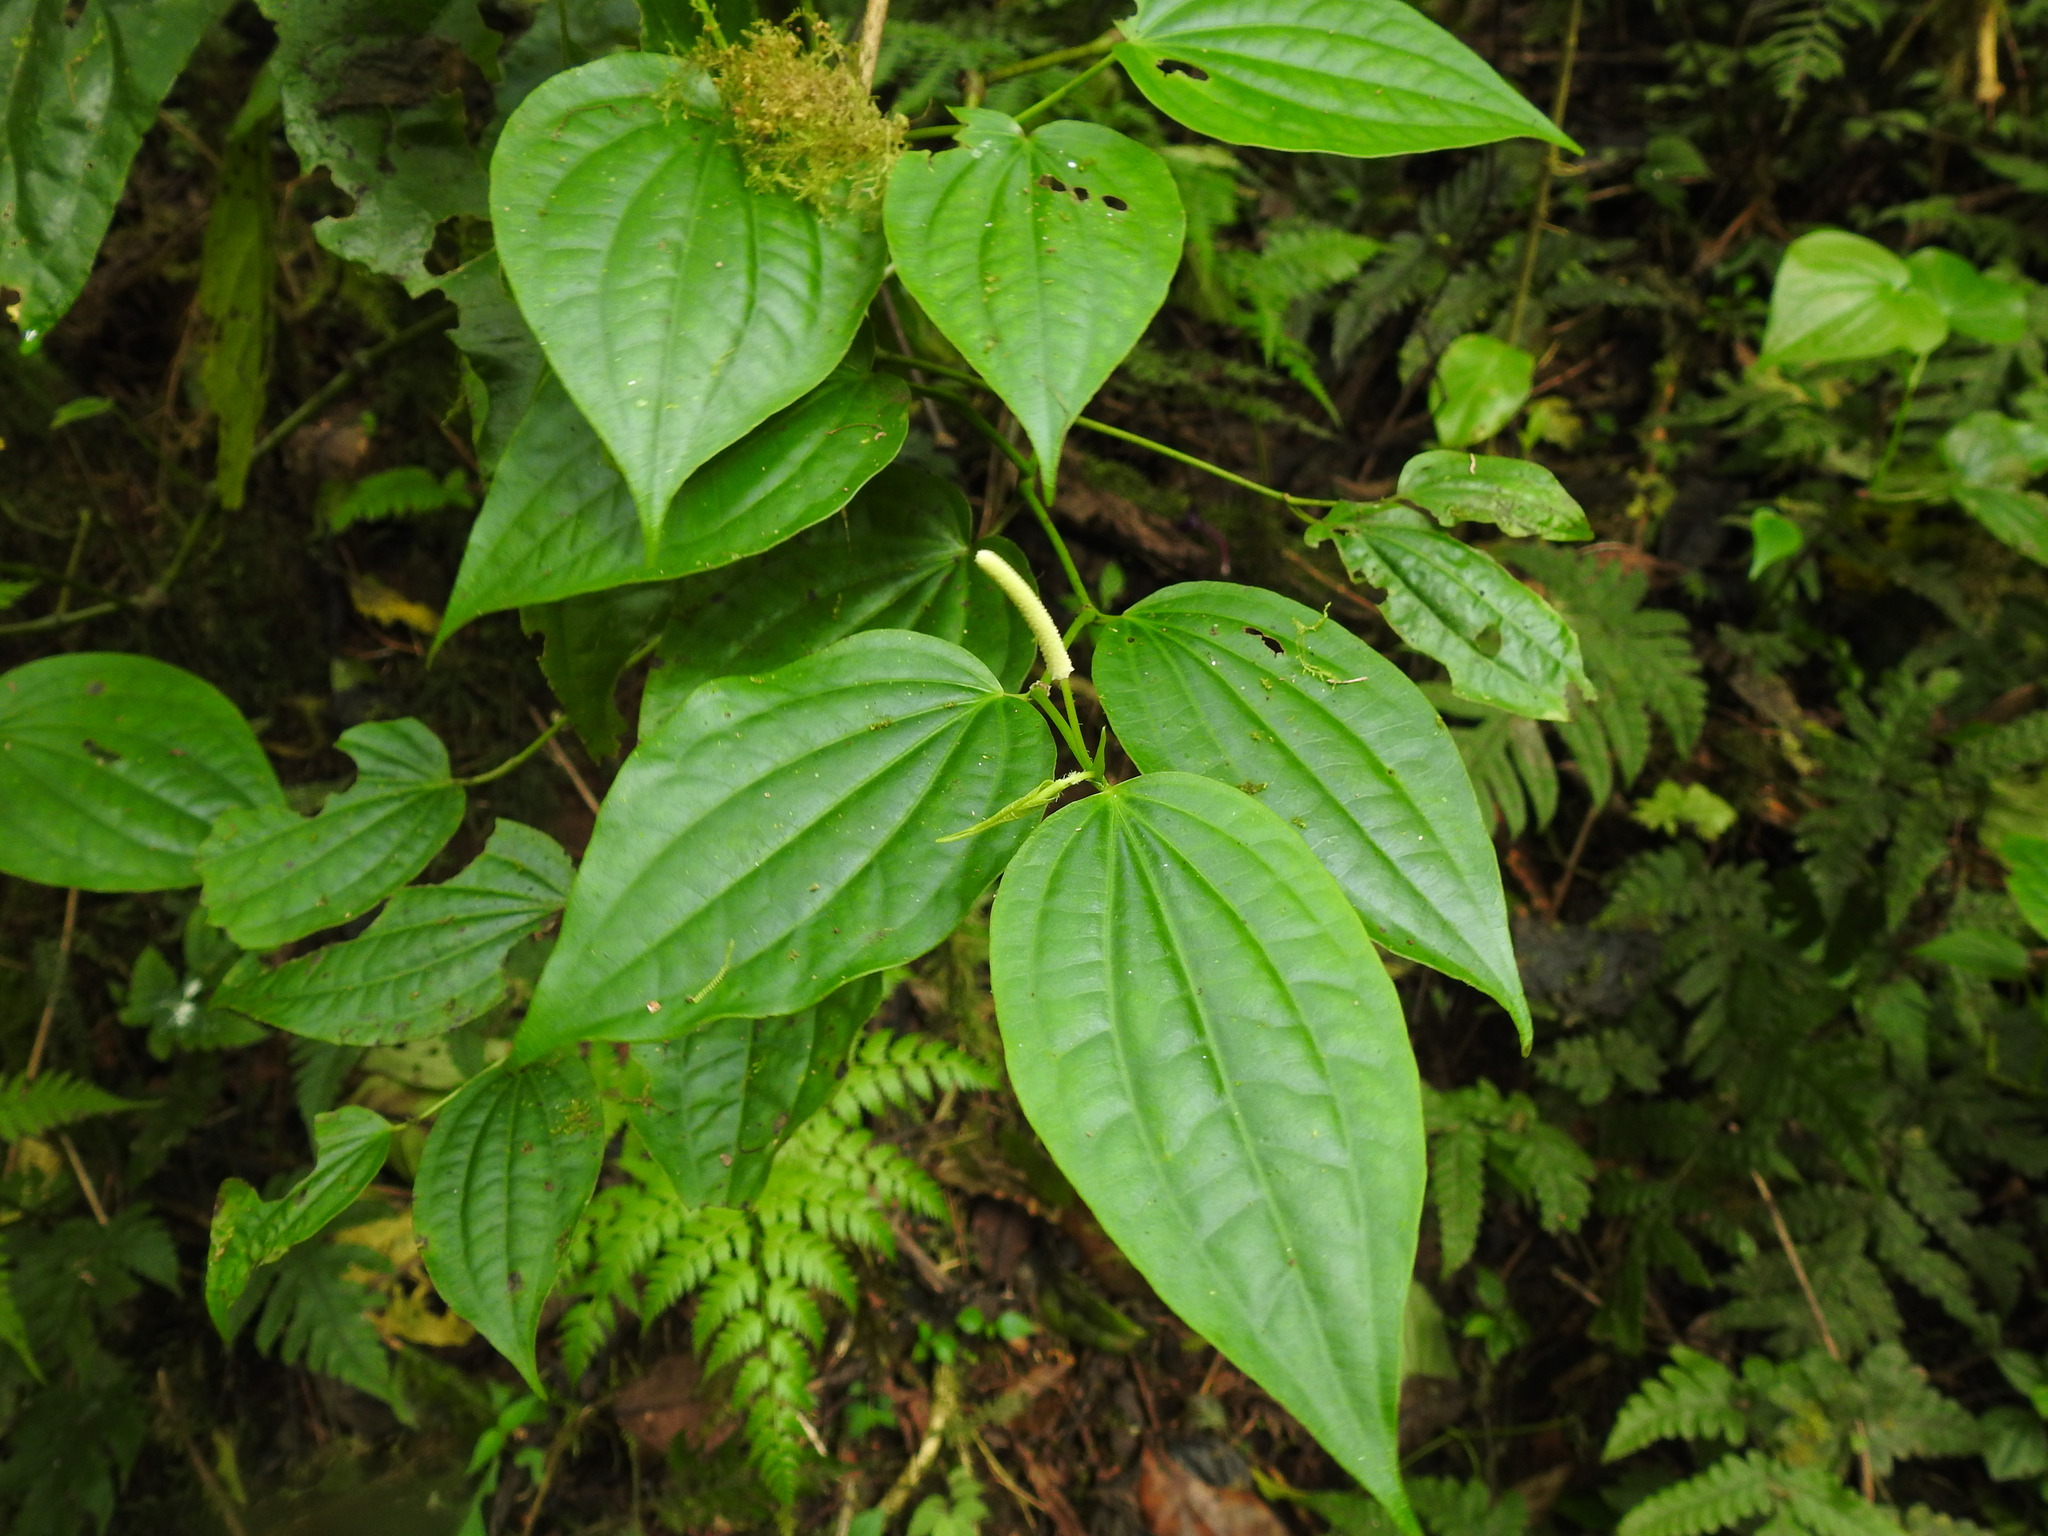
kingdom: Plantae
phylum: Tracheophyta
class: Magnoliopsida
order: Piperales
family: Piperaceae
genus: Piper
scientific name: Piper capense
